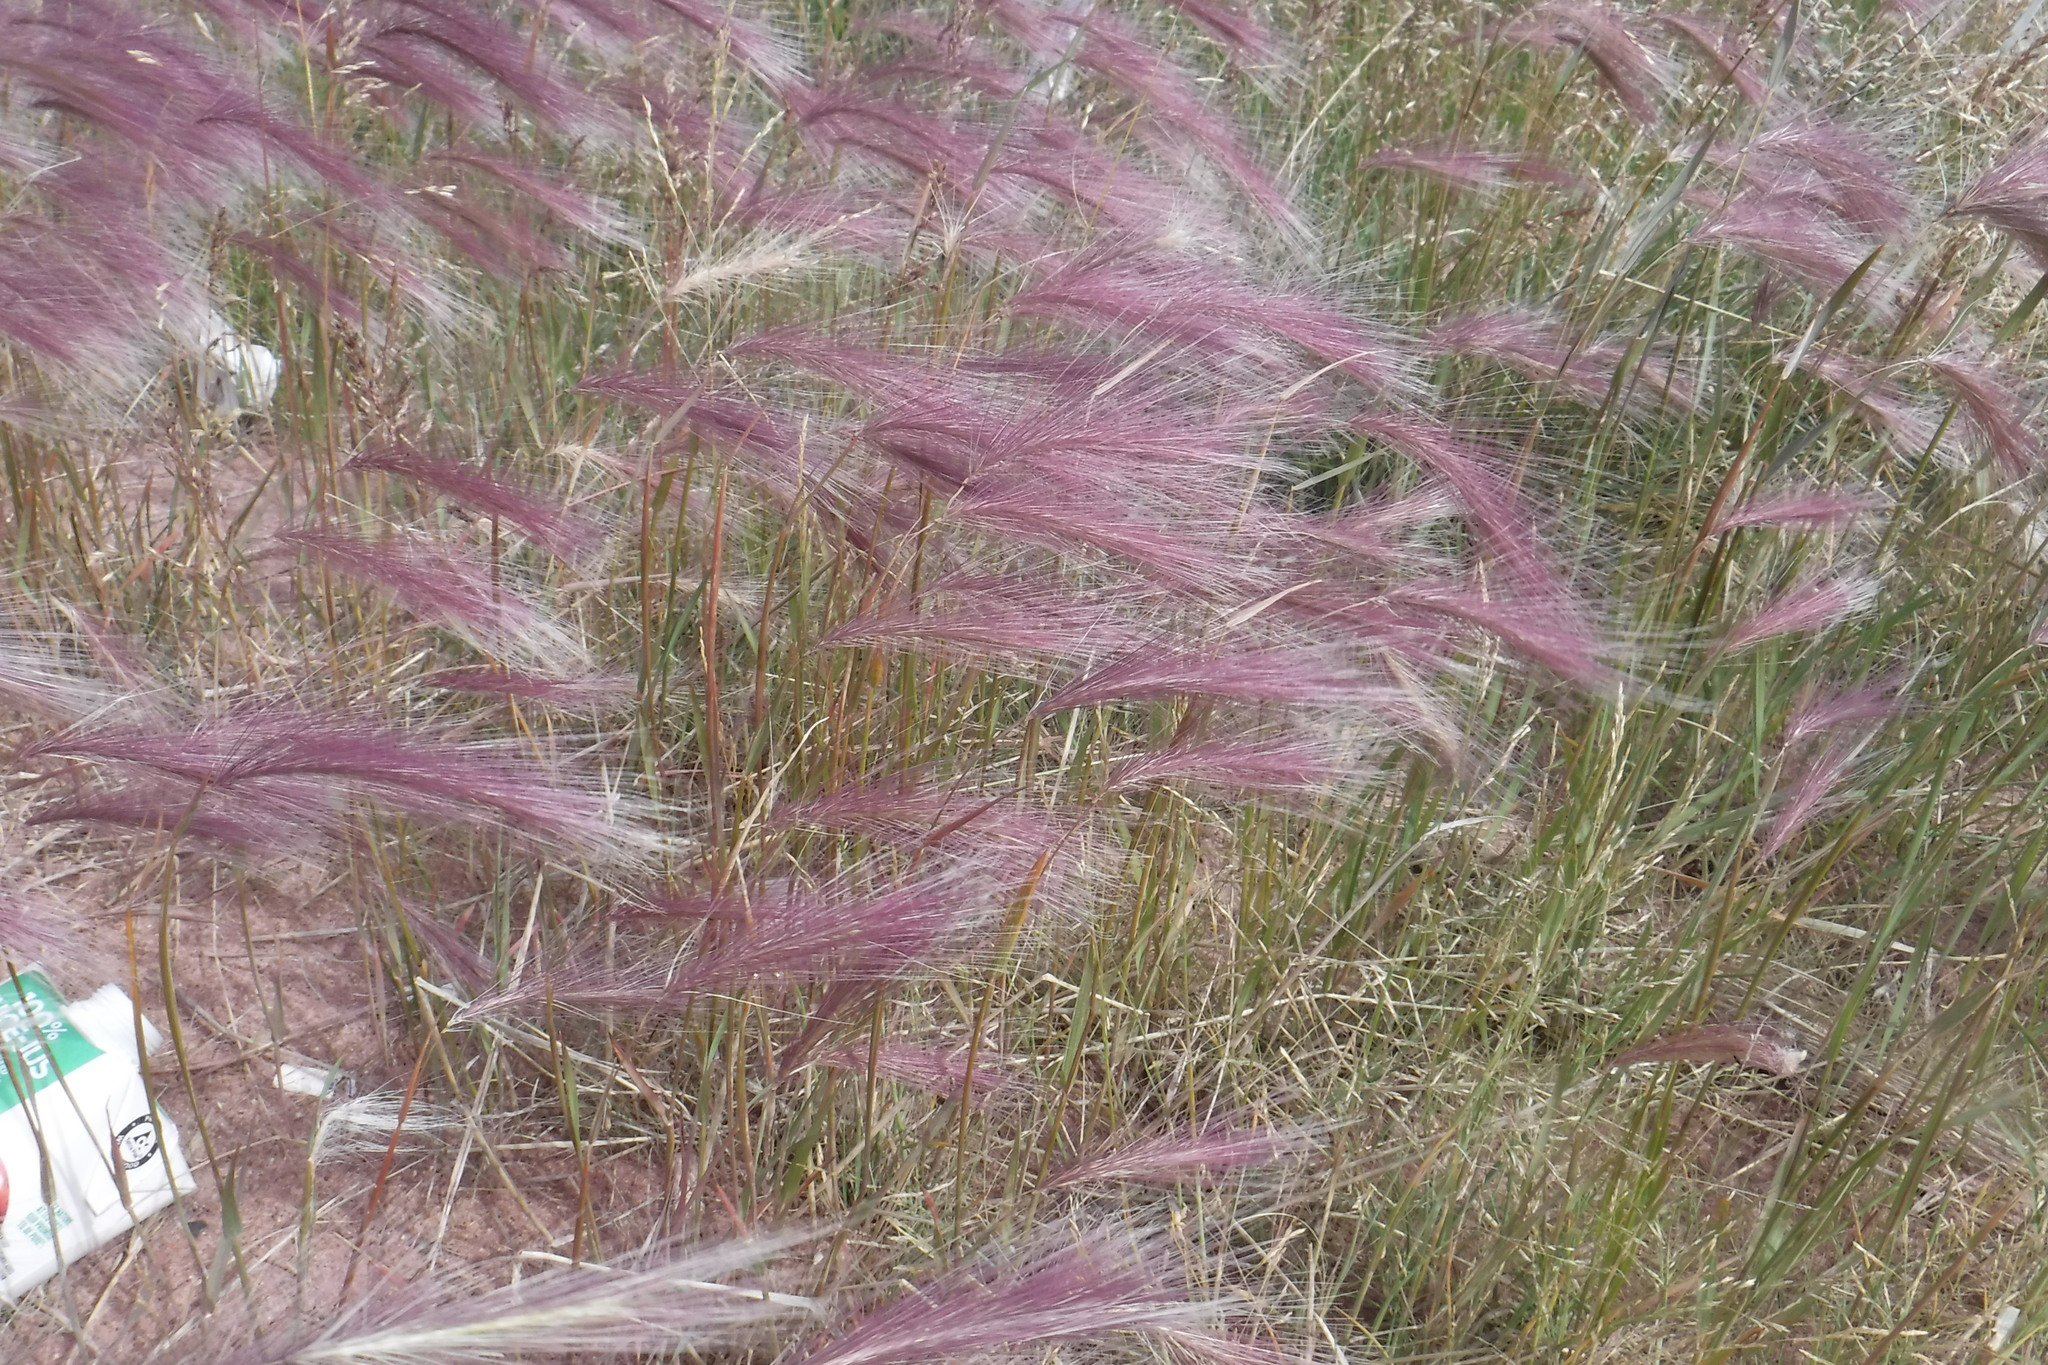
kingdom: Plantae
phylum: Tracheophyta
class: Liliopsida
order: Poales
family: Poaceae
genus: Hordeum
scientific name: Hordeum jubatum
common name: Foxtail barley
